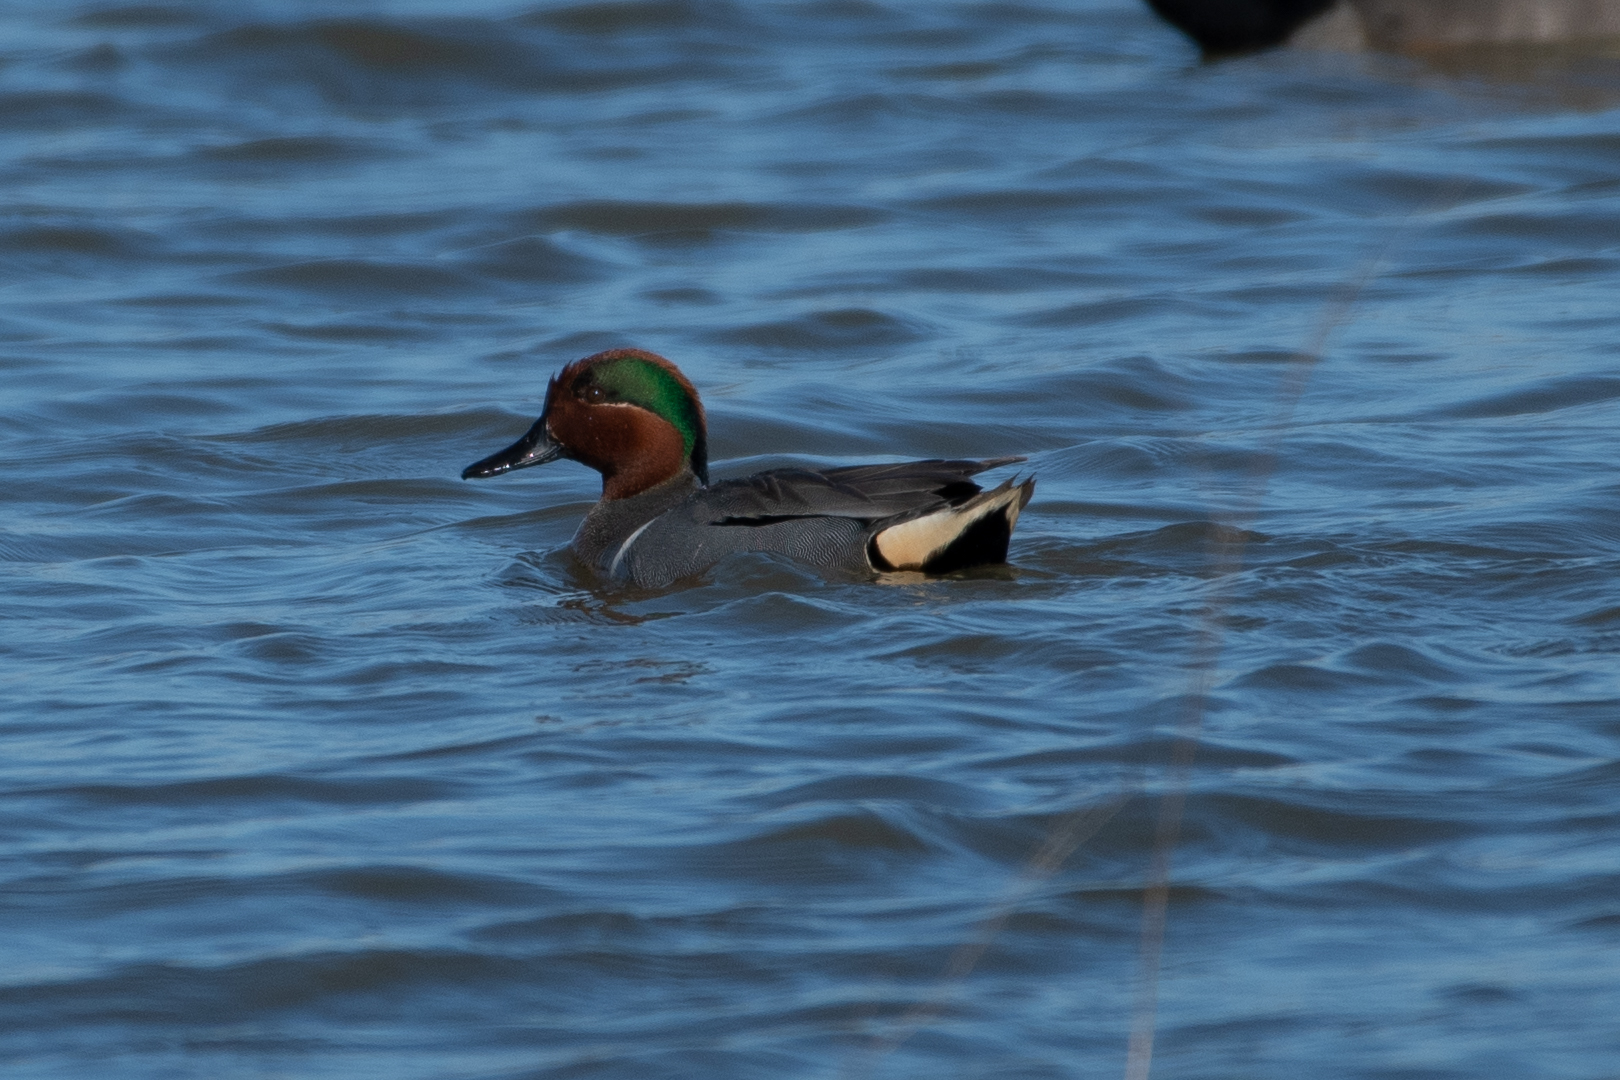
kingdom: Animalia
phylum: Chordata
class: Aves
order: Anseriformes
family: Anatidae
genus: Anas
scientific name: Anas crecca
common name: Eurasian teal
